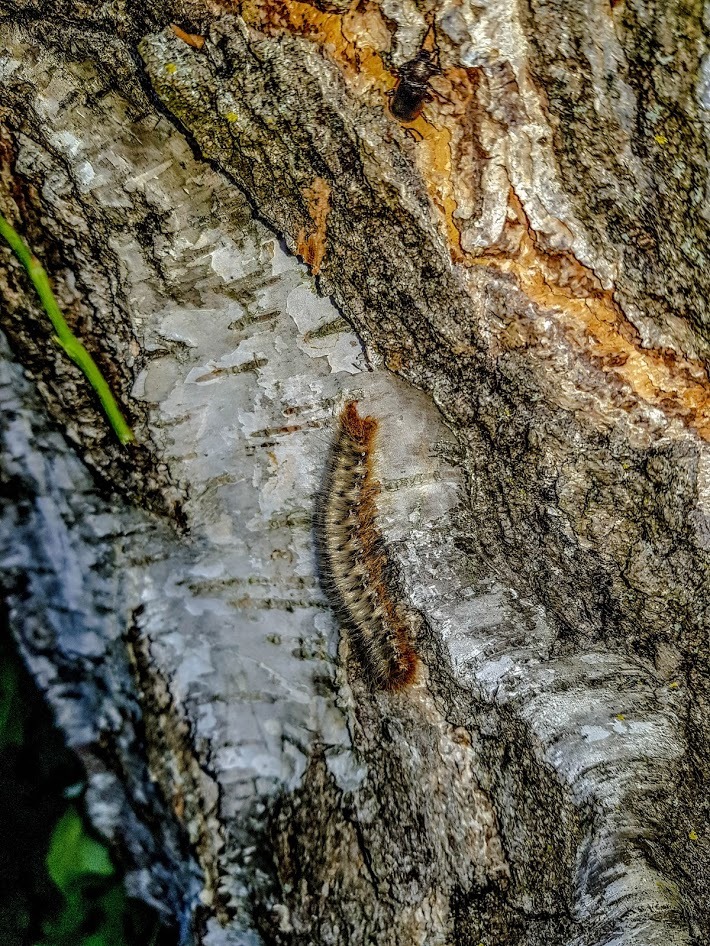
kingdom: Animalia
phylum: Arthropoda
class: Insecta
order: Lepidoptera
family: Lasiocampidae
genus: Lasiocampa
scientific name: Lasiocampa quercus
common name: Oak eggar
